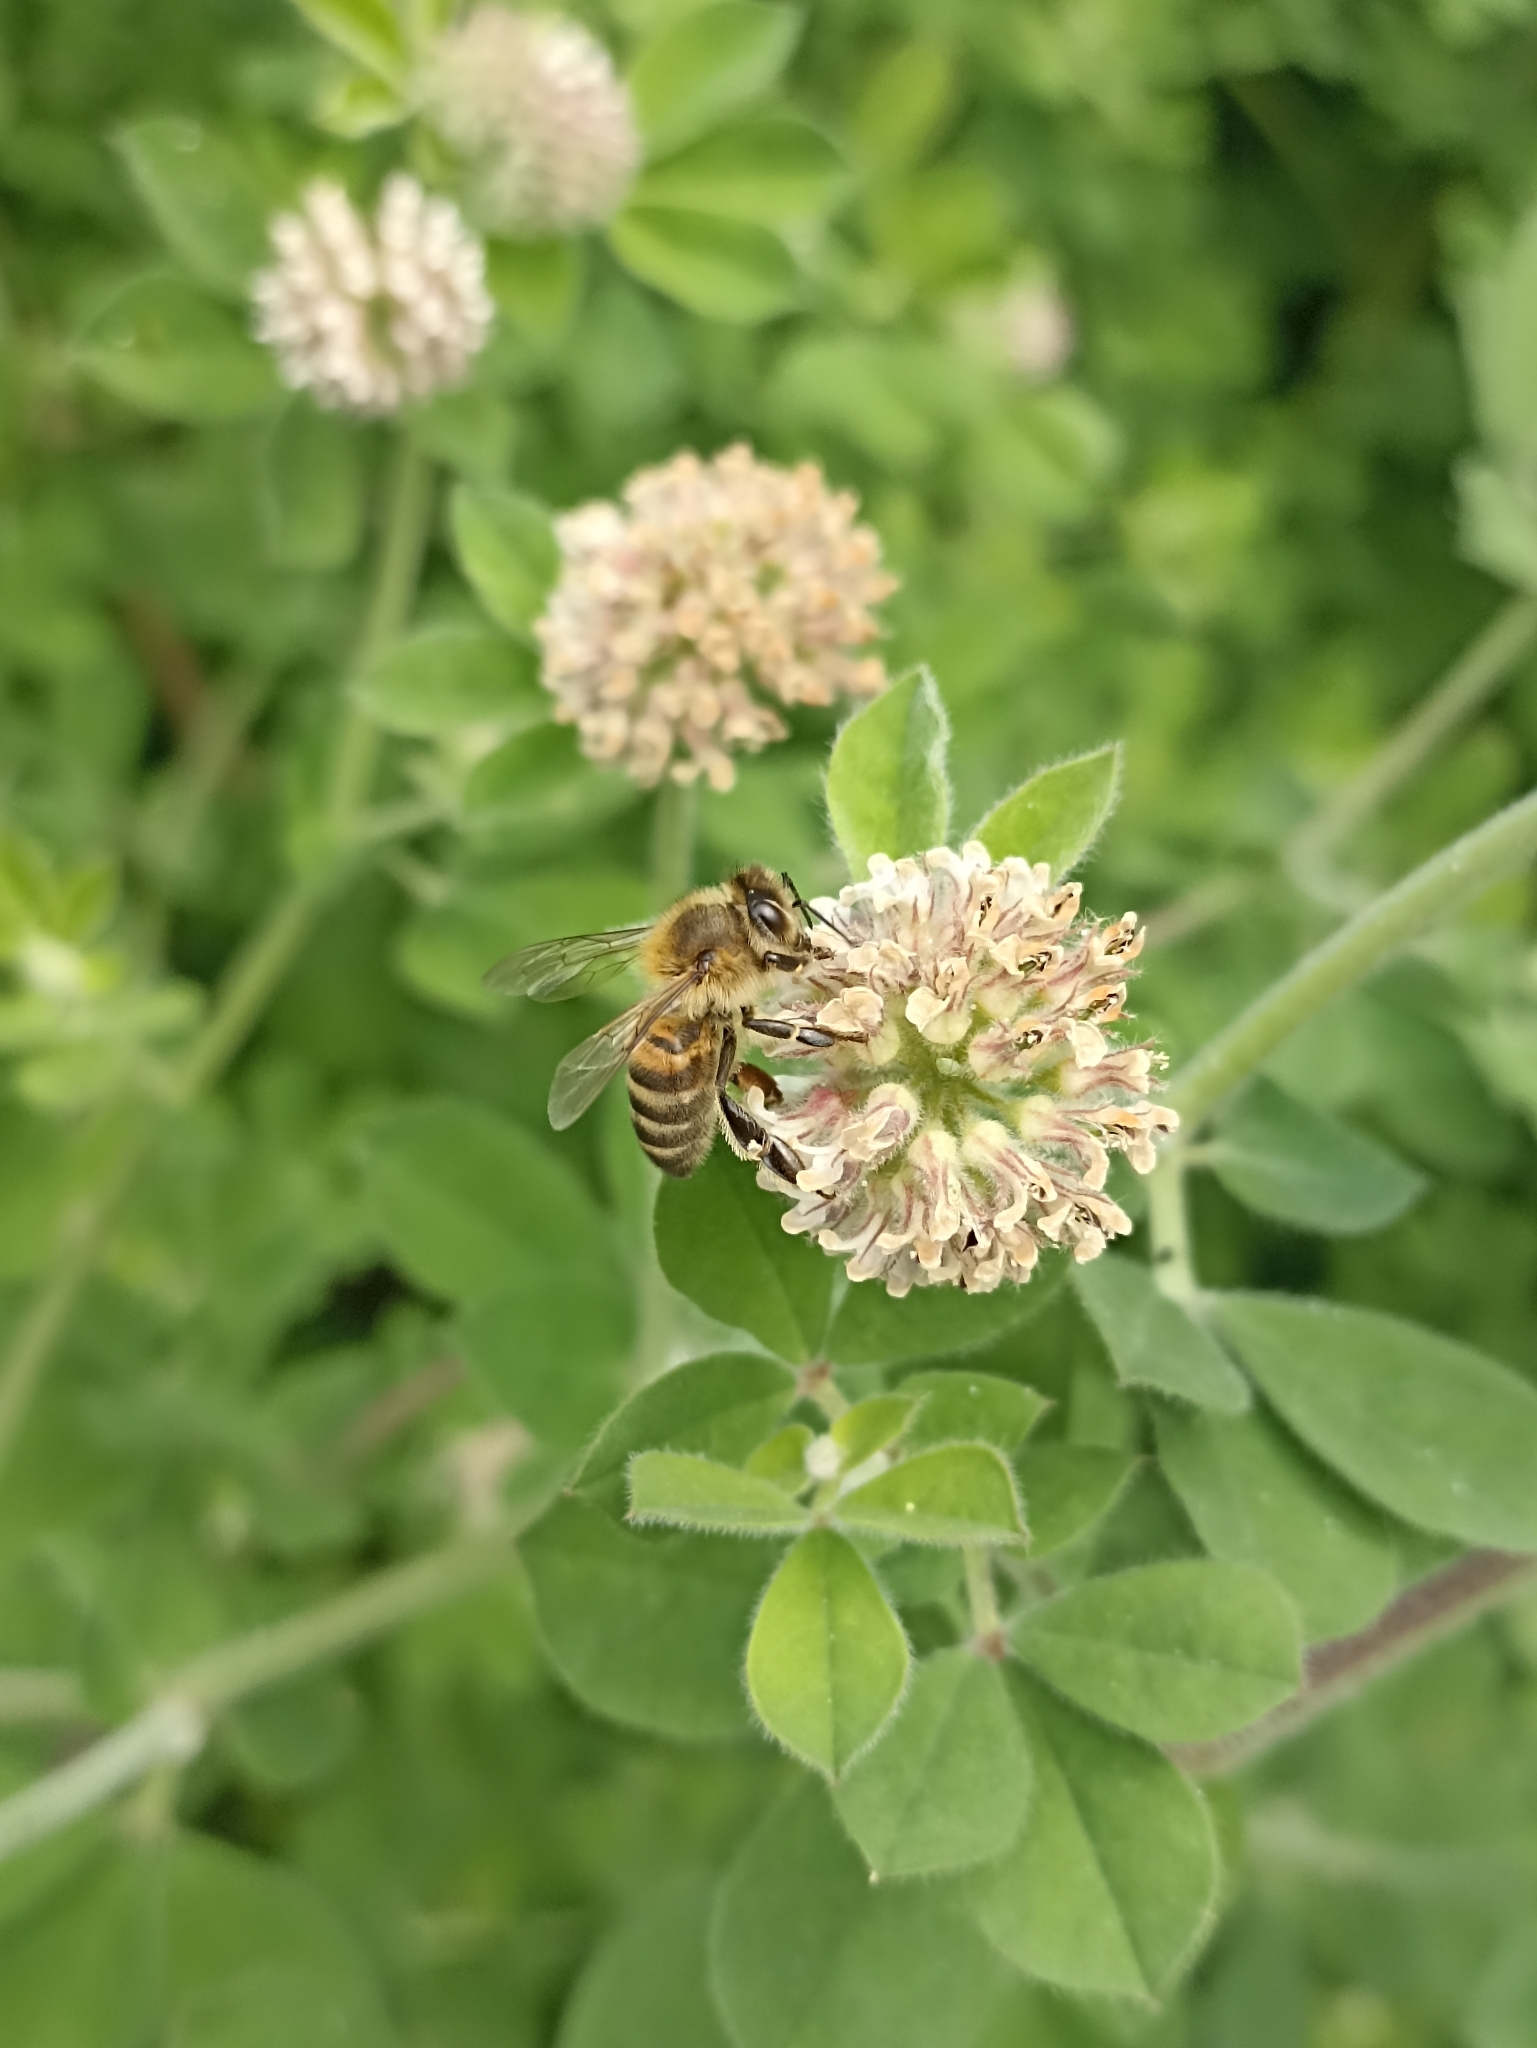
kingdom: Animalia
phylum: Arthropoda
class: Insecta
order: Hymenoptera
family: Apidae
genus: Apis
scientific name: Apis mellifera
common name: Honey bee
